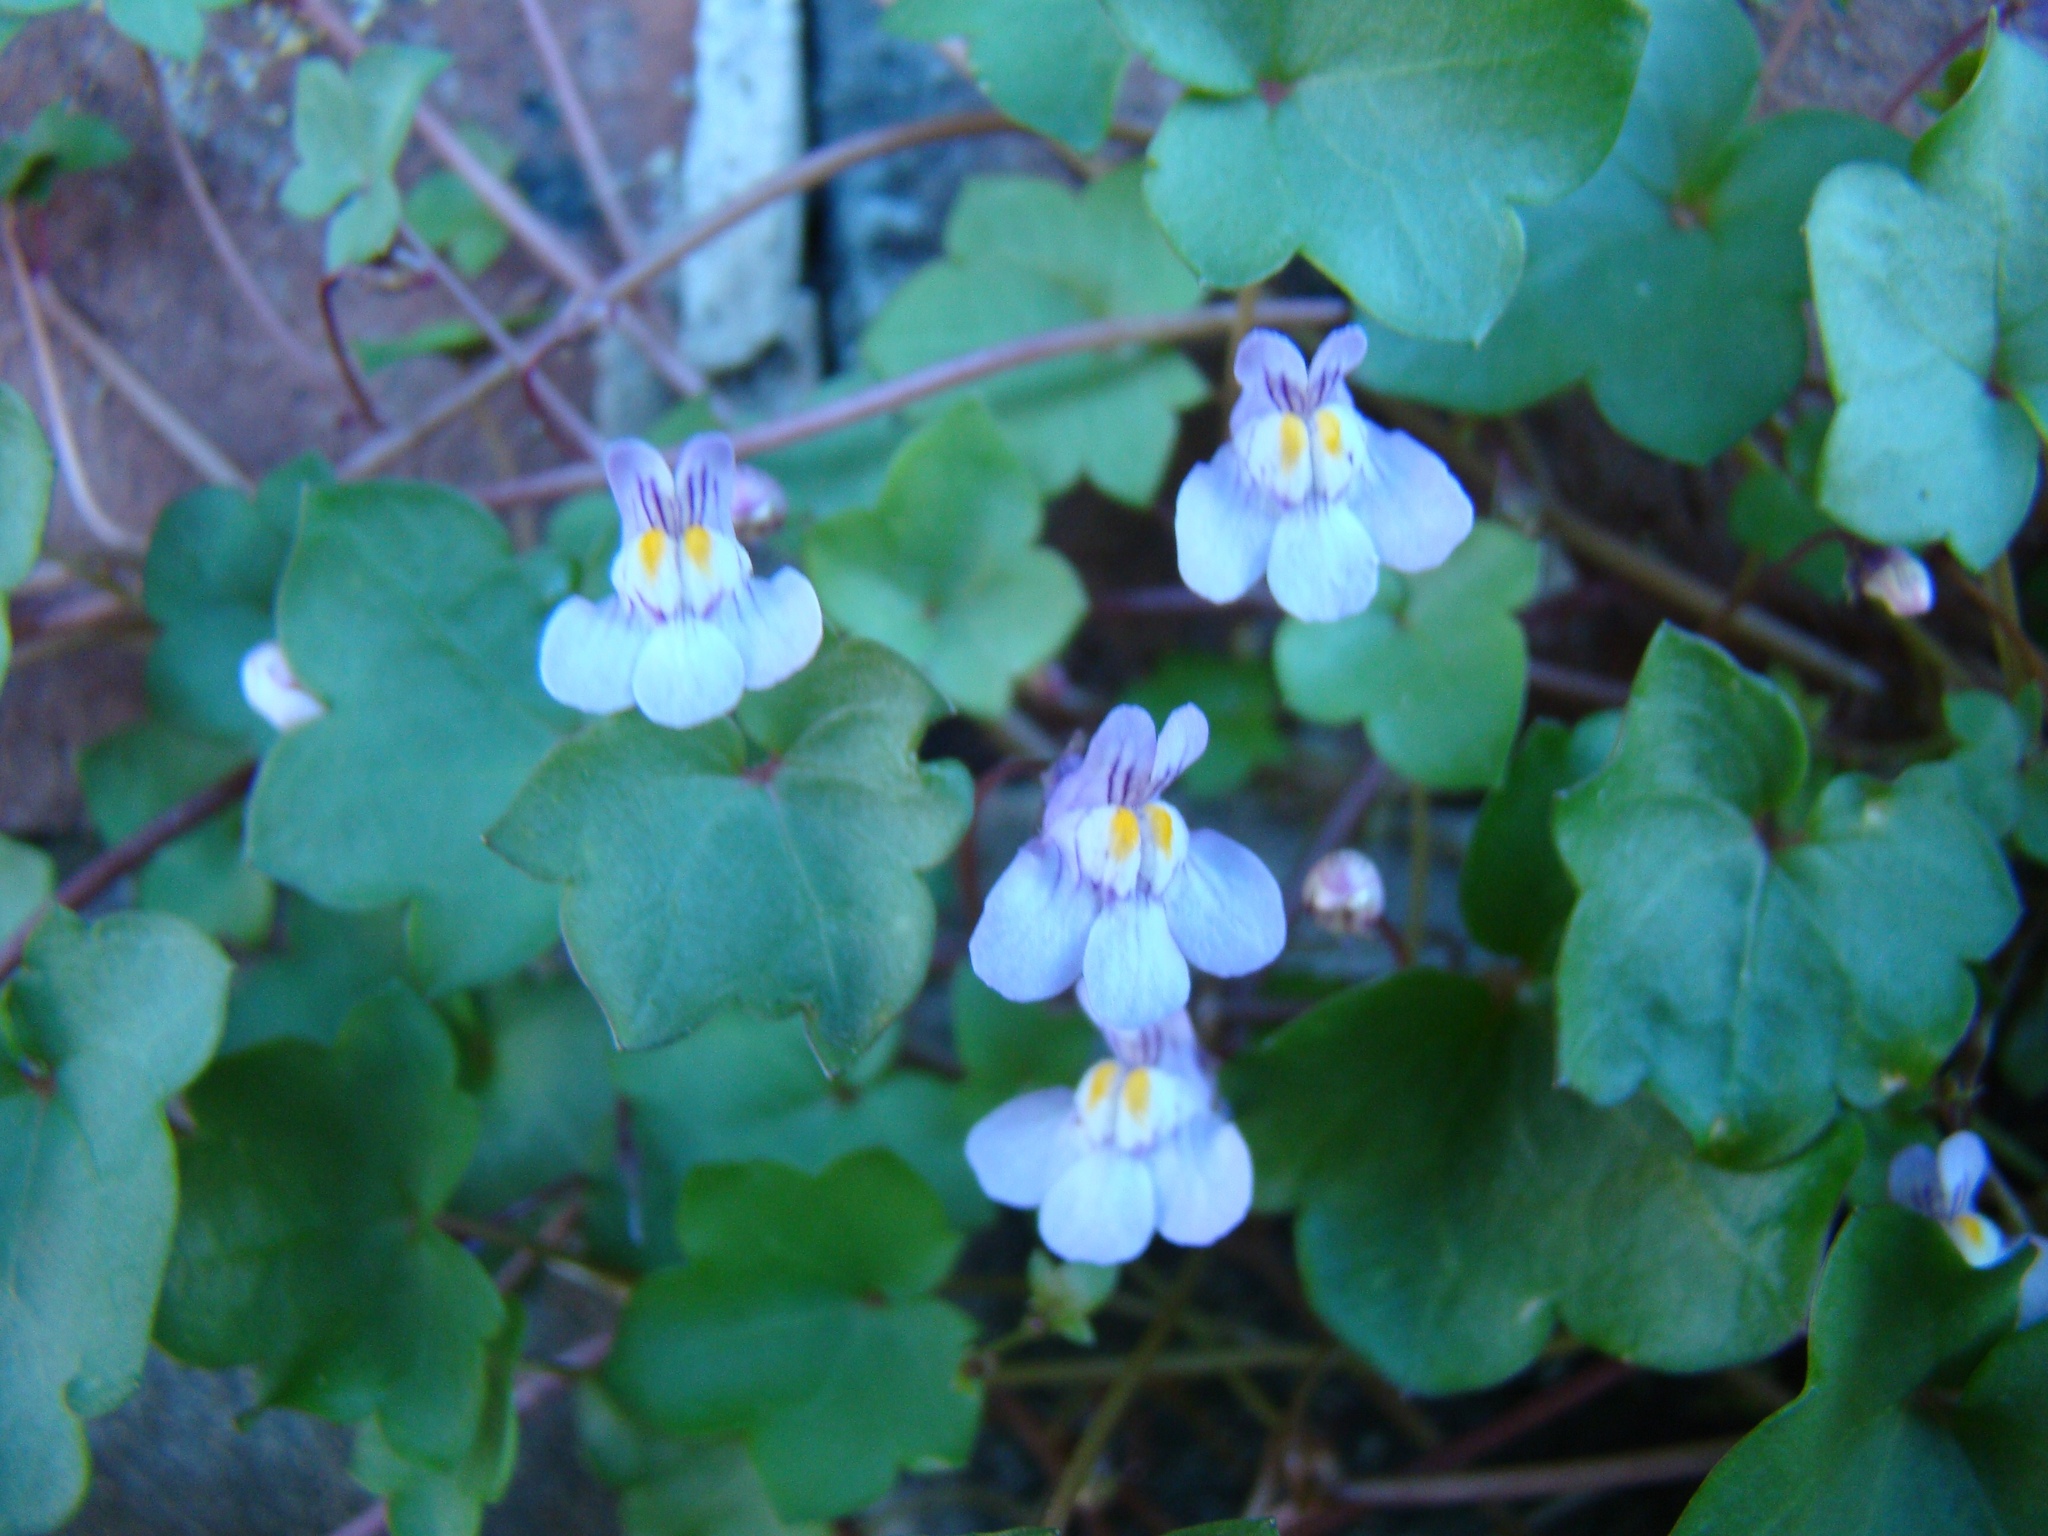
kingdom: Plantae
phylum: Tracheophyta
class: Magnoliopsida
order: Lamiales
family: Plantaginaceae
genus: Cymbalaria
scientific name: Cymbalaria muralis
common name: Ivy-leaved toadflax
